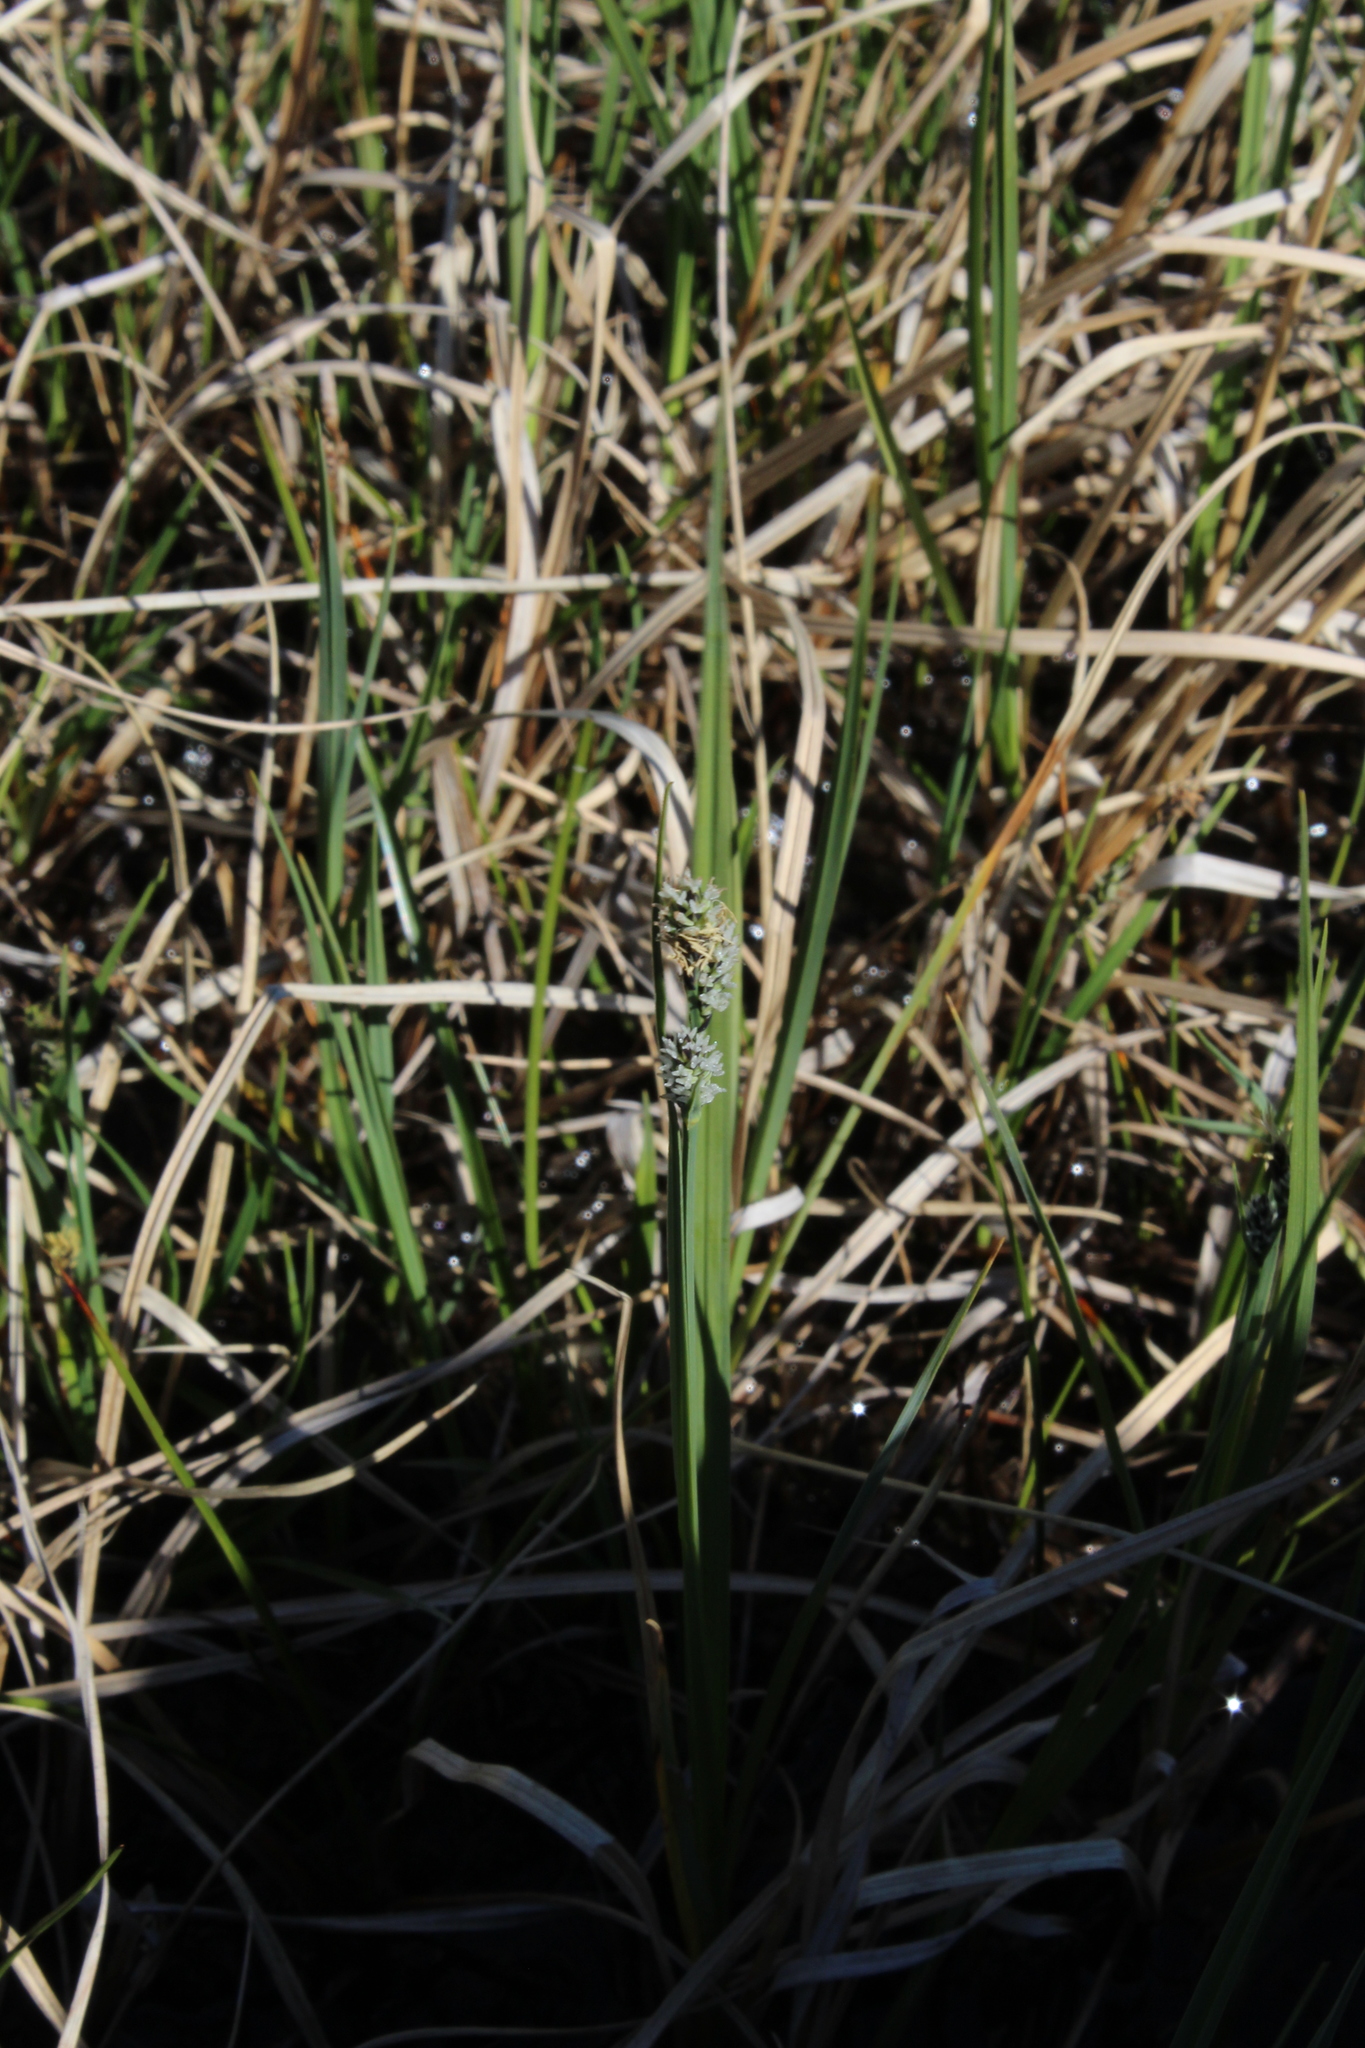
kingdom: Plantae
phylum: Tracheophyta
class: Liliopsida
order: Poales
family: Cyperaceae
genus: Carex
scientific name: Carex adelostoma
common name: Circumpolar sedge
